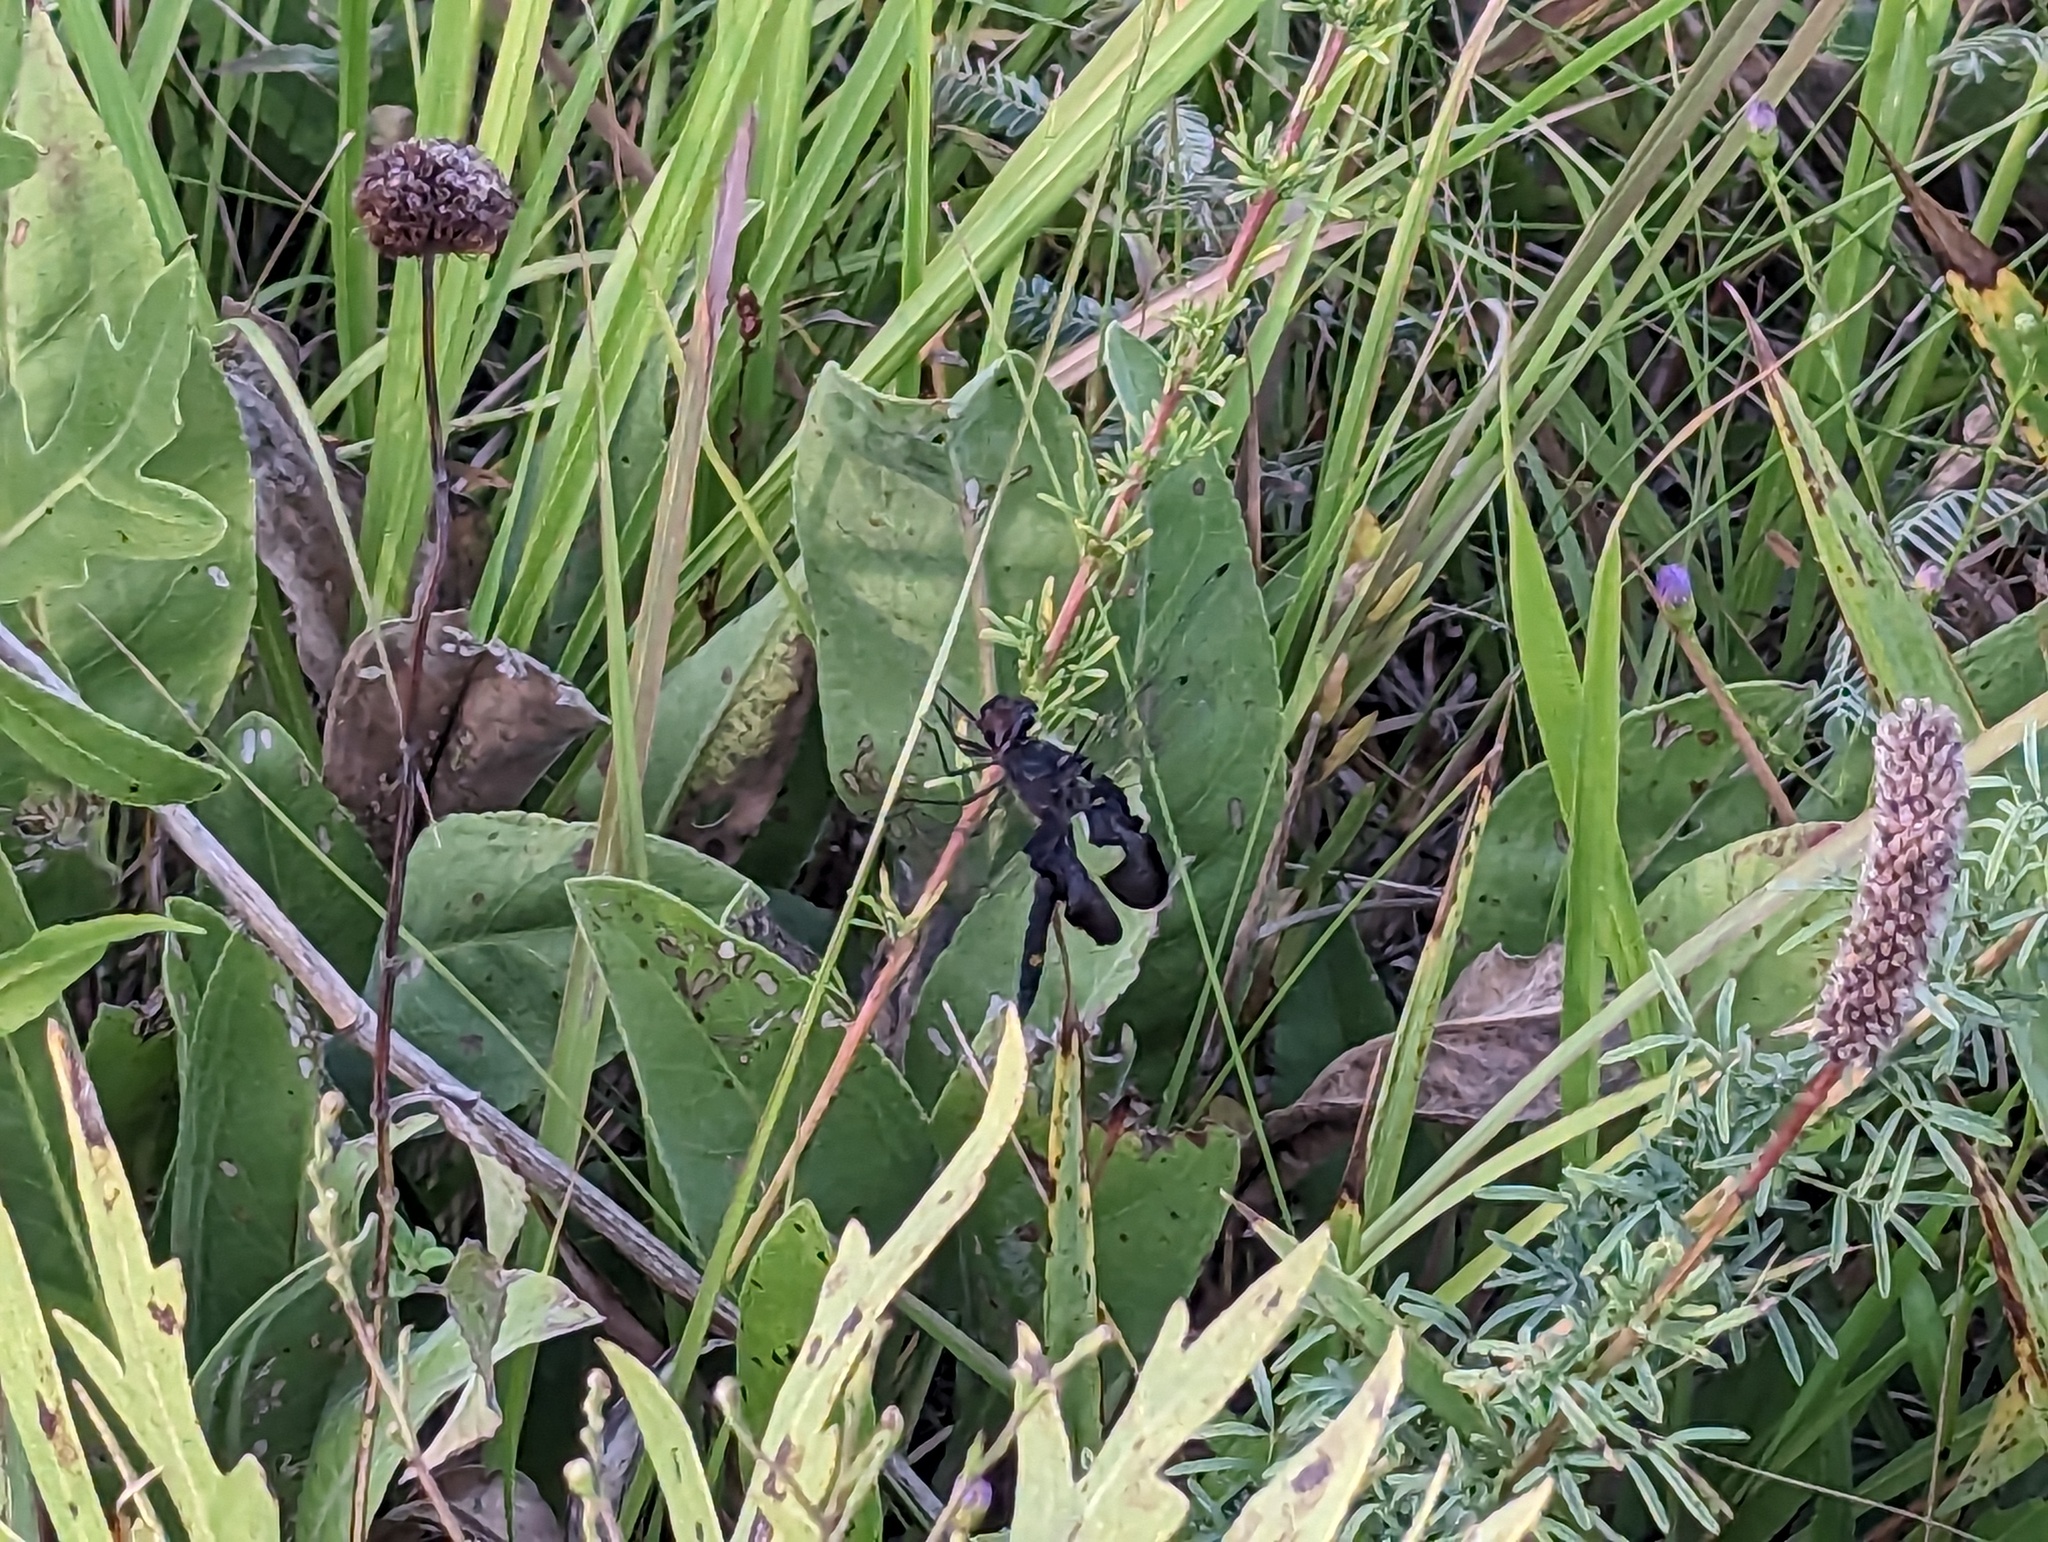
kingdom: Animalia
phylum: Arthropoda
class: Insecta
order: Odonata
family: Libellulidae
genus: Tramea
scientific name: Tramea lacerata
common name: Black saddlebags
